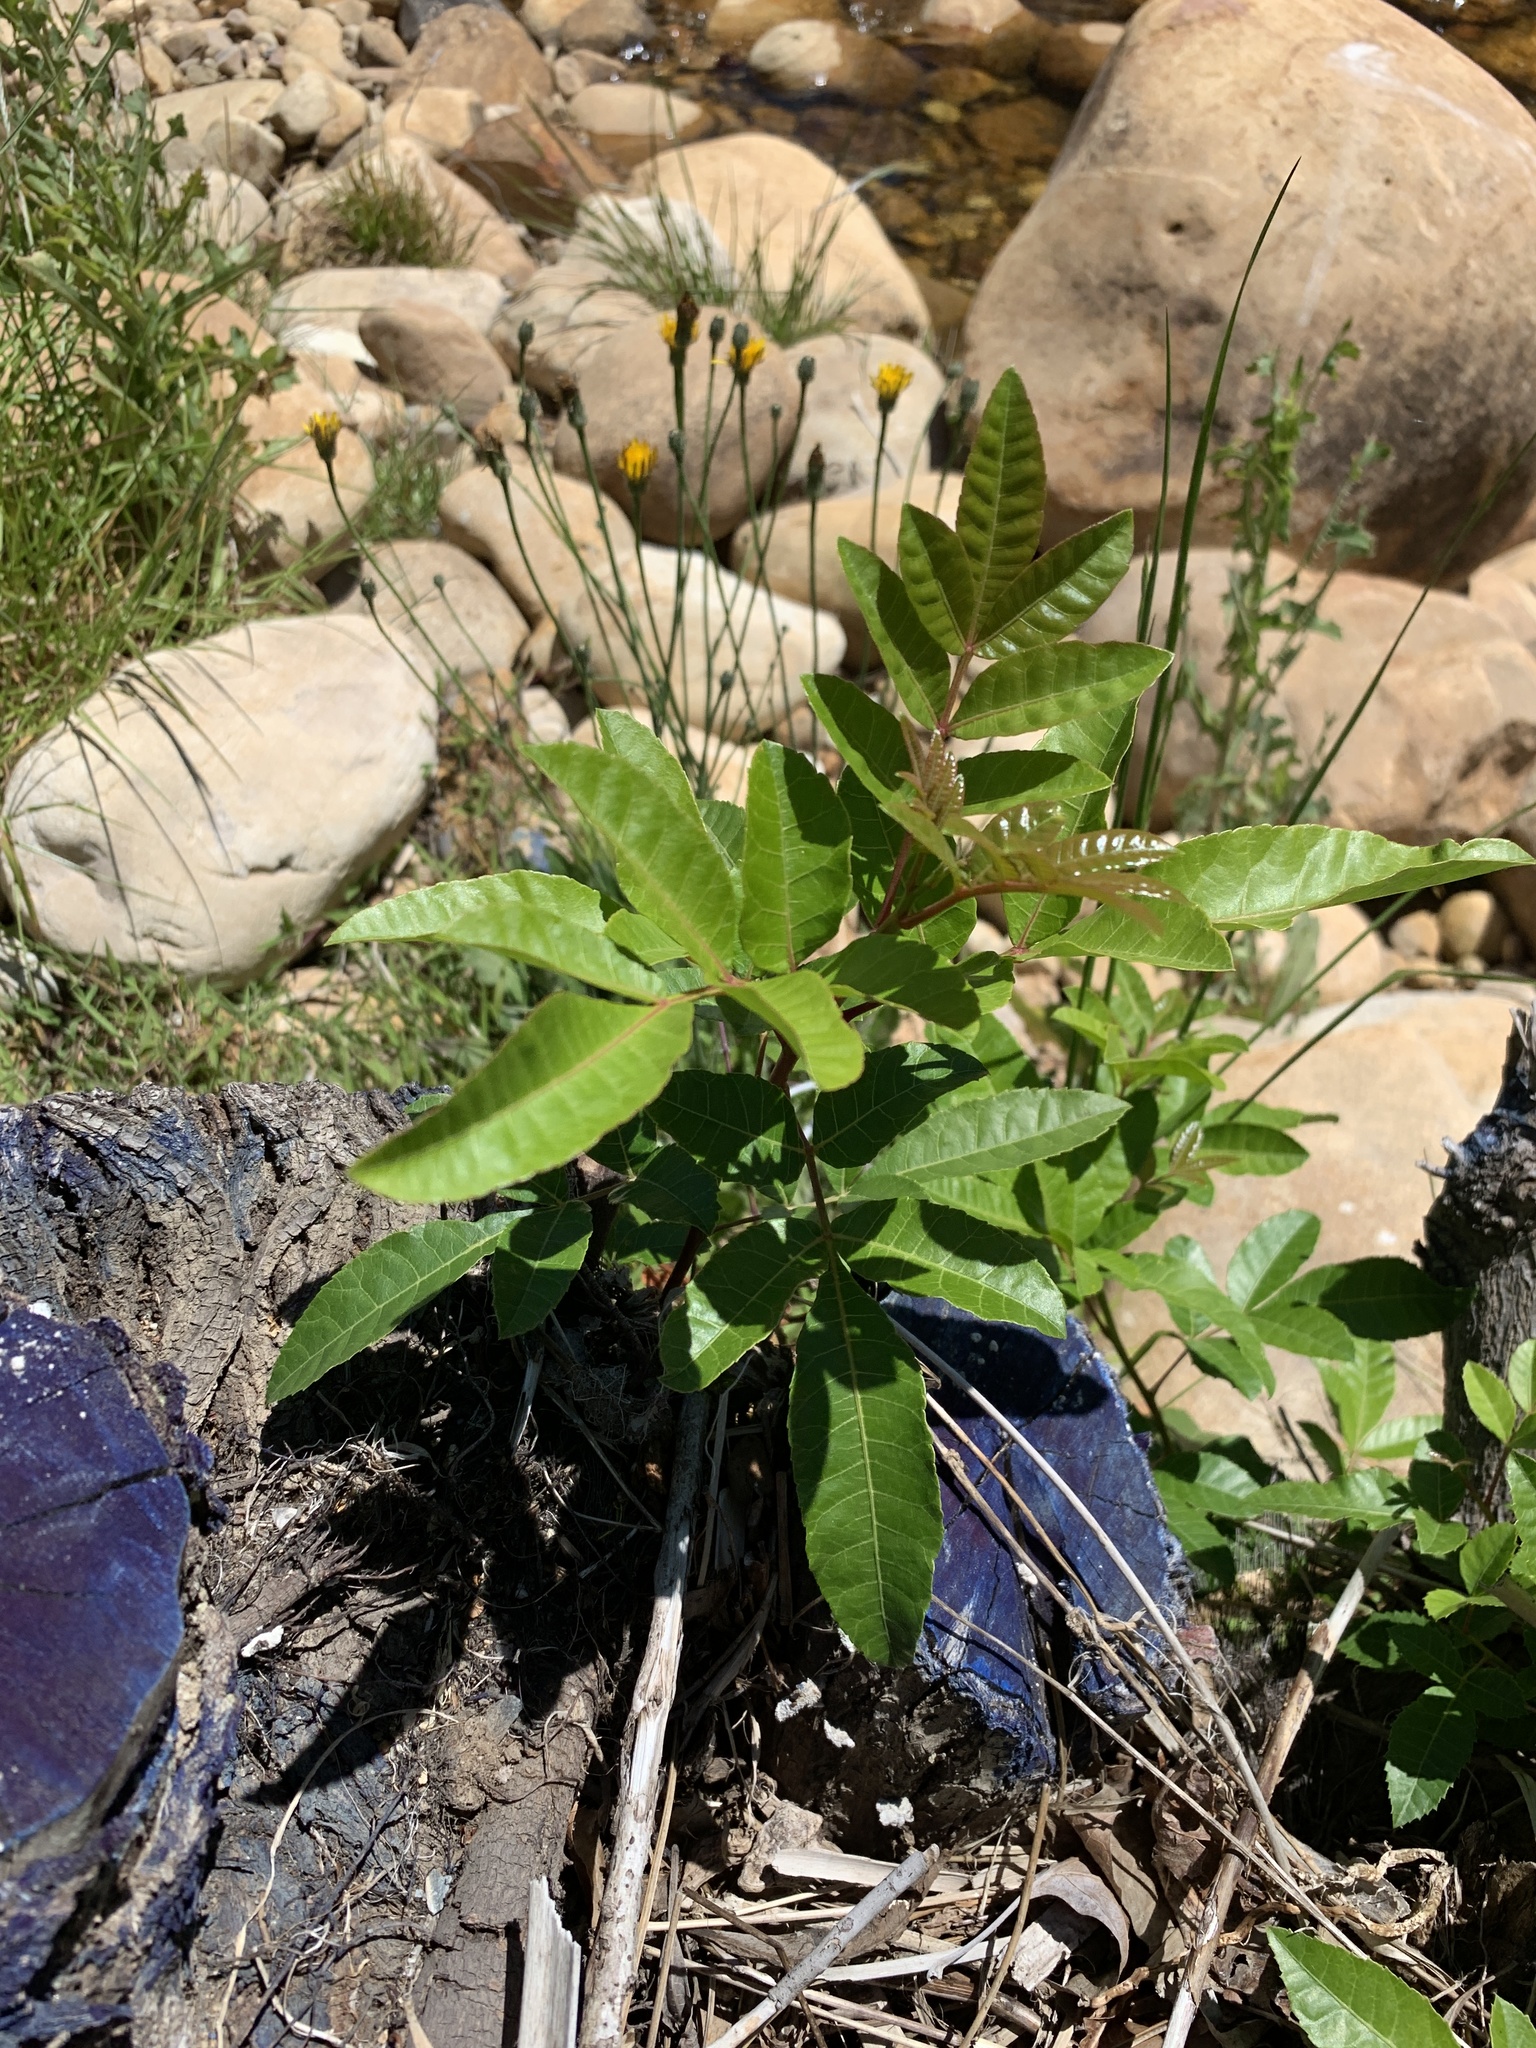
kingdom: Plantae
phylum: Tracheophyta
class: Magnoliopsida
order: Sapindales
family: Anacardiaceae
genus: Schinus
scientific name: Schinus terebinthifolia
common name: Brazilian peppertree
